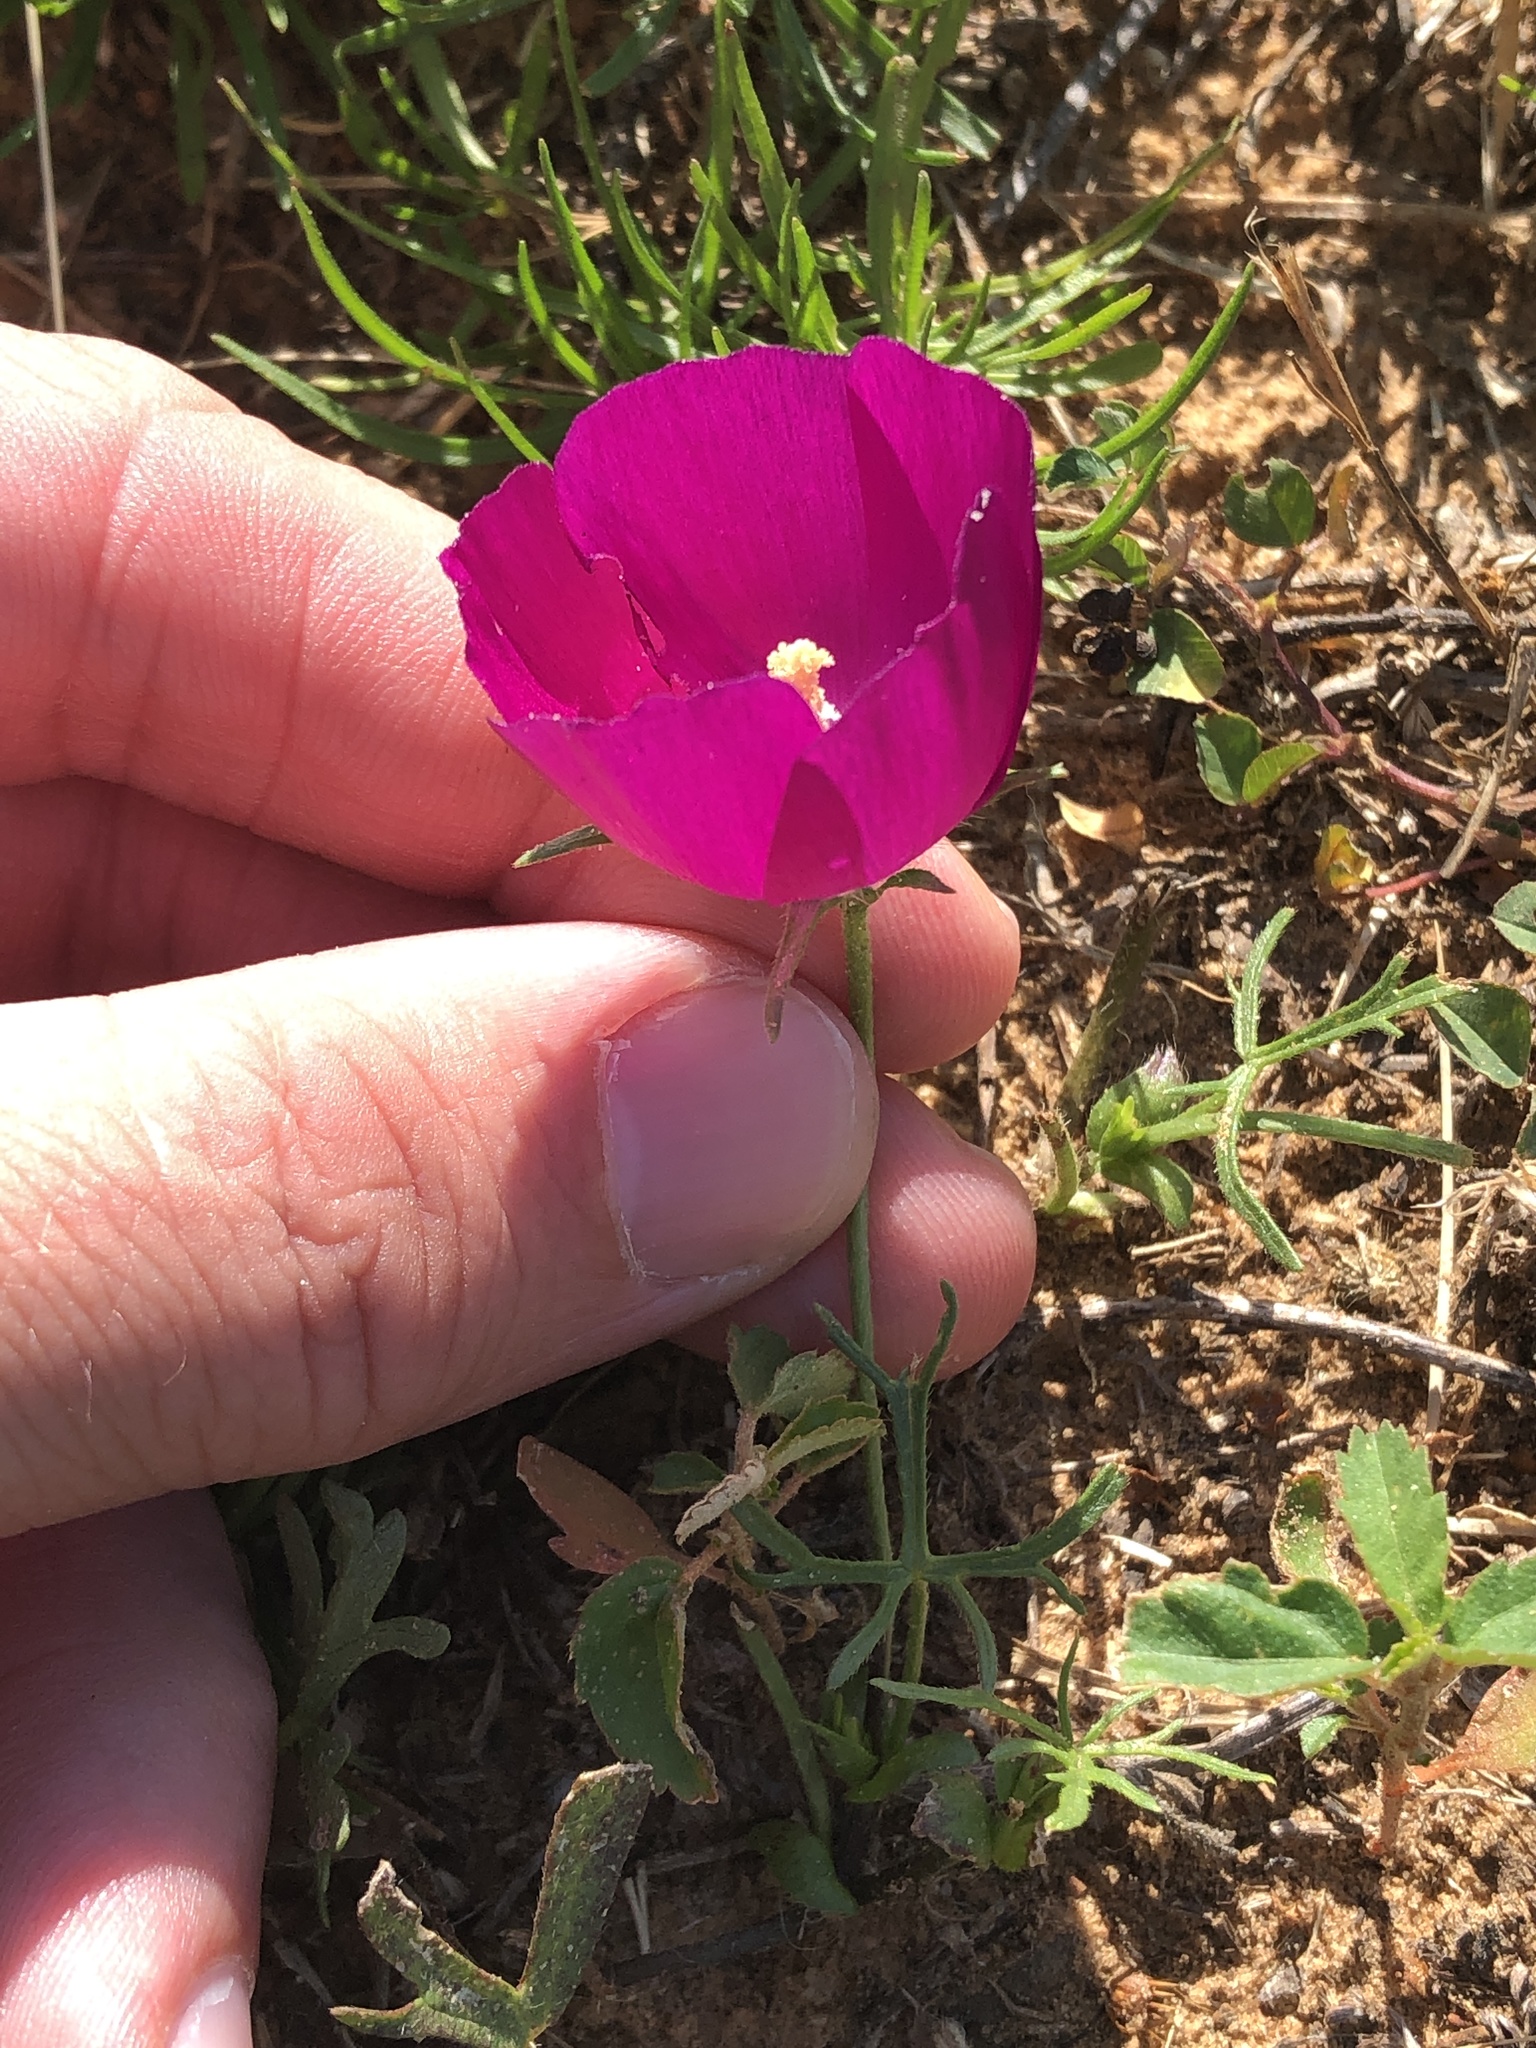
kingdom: Plantae
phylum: Tracheophyta
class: Magnoliopsida
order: Malvales
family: Malvaceae
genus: Callirhoe
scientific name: Callirhoe involucrata
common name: Purple poppy-mallow
